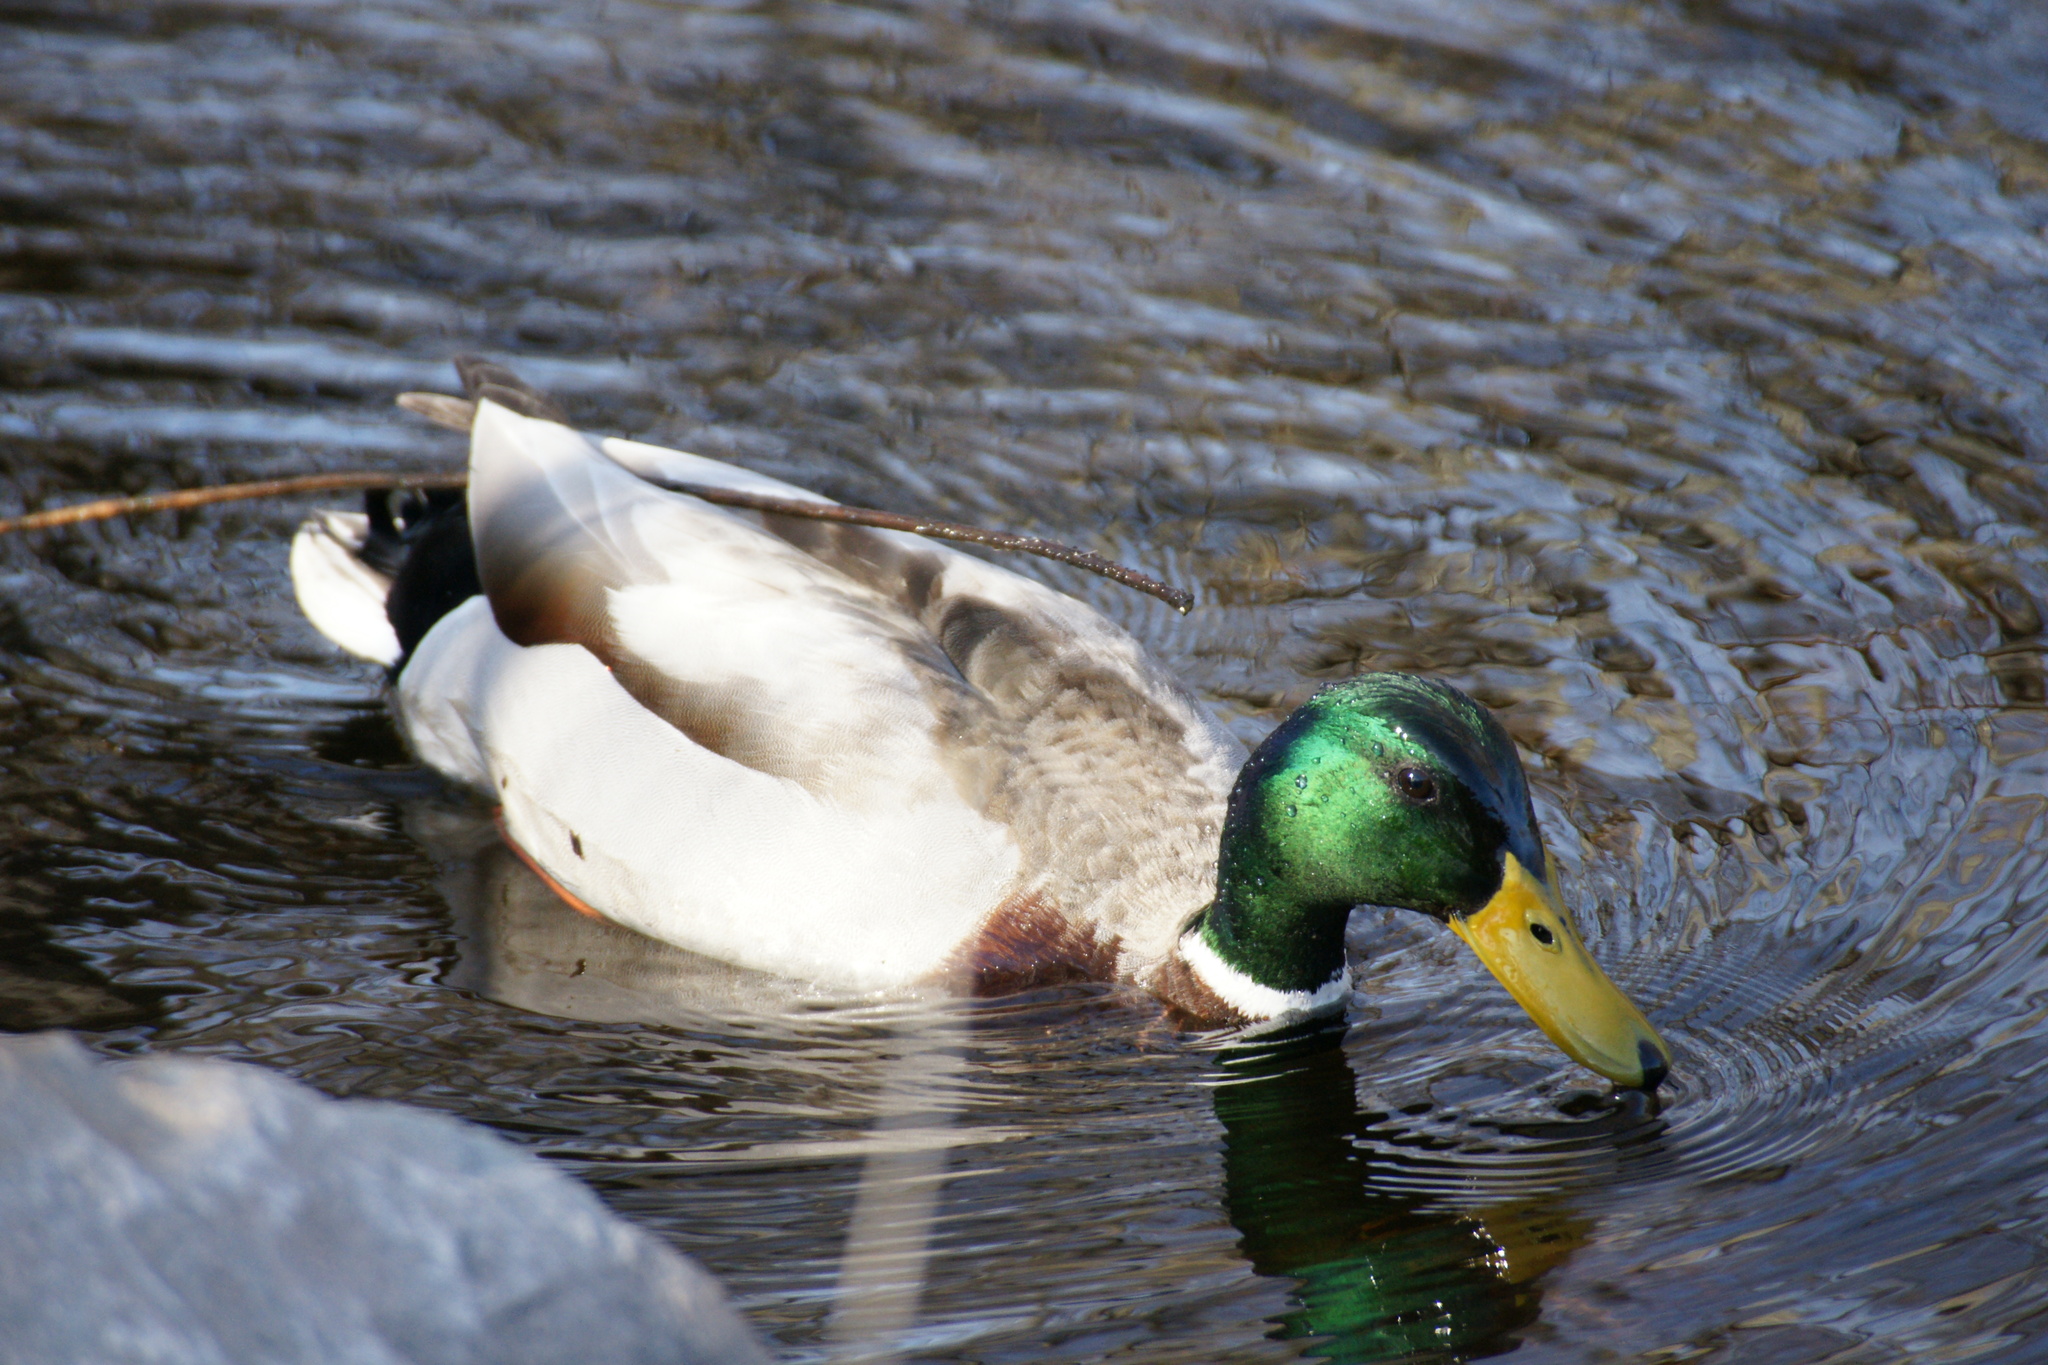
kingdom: Animalia
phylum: Chordata
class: Aves
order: Anseriformes
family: Anatidae
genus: Anas
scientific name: Anas platyrhynchos
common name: Mallard
